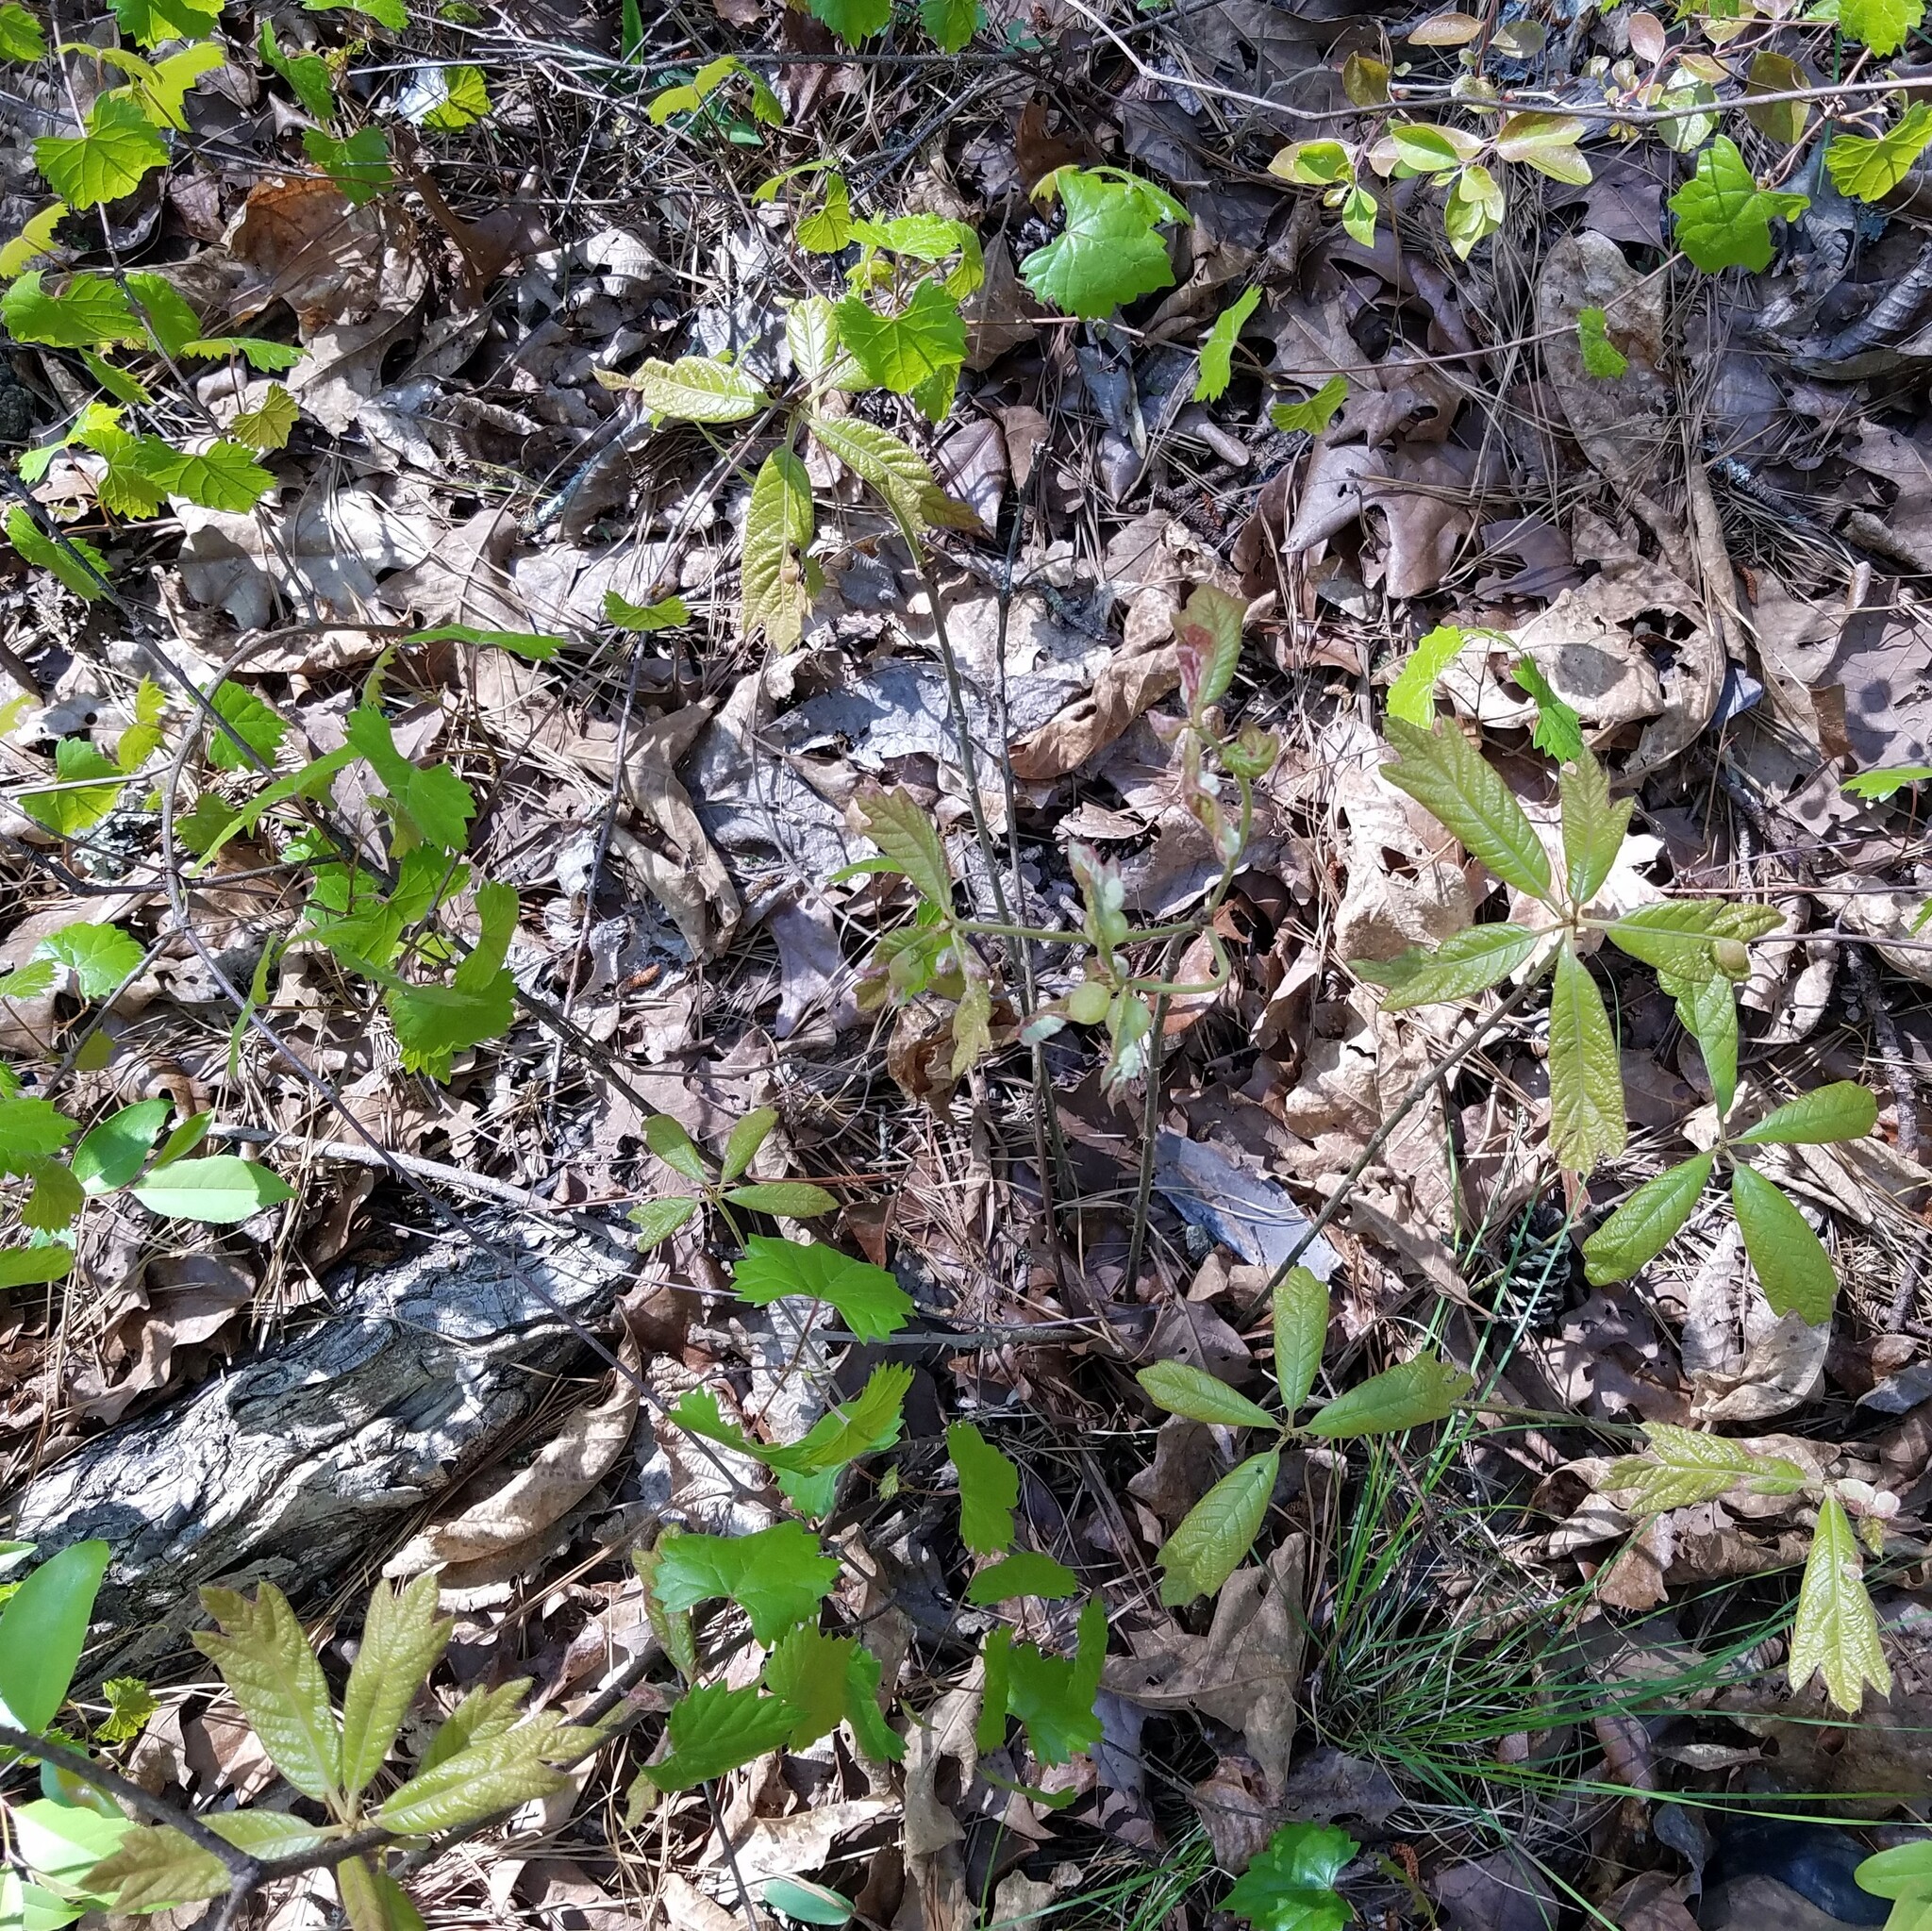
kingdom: Plantae
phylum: Tracheophyta
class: Magnoliopsida
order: Fagales
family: Fagaceae
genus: Quercus
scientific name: Quercus falcata
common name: Southern red oak
